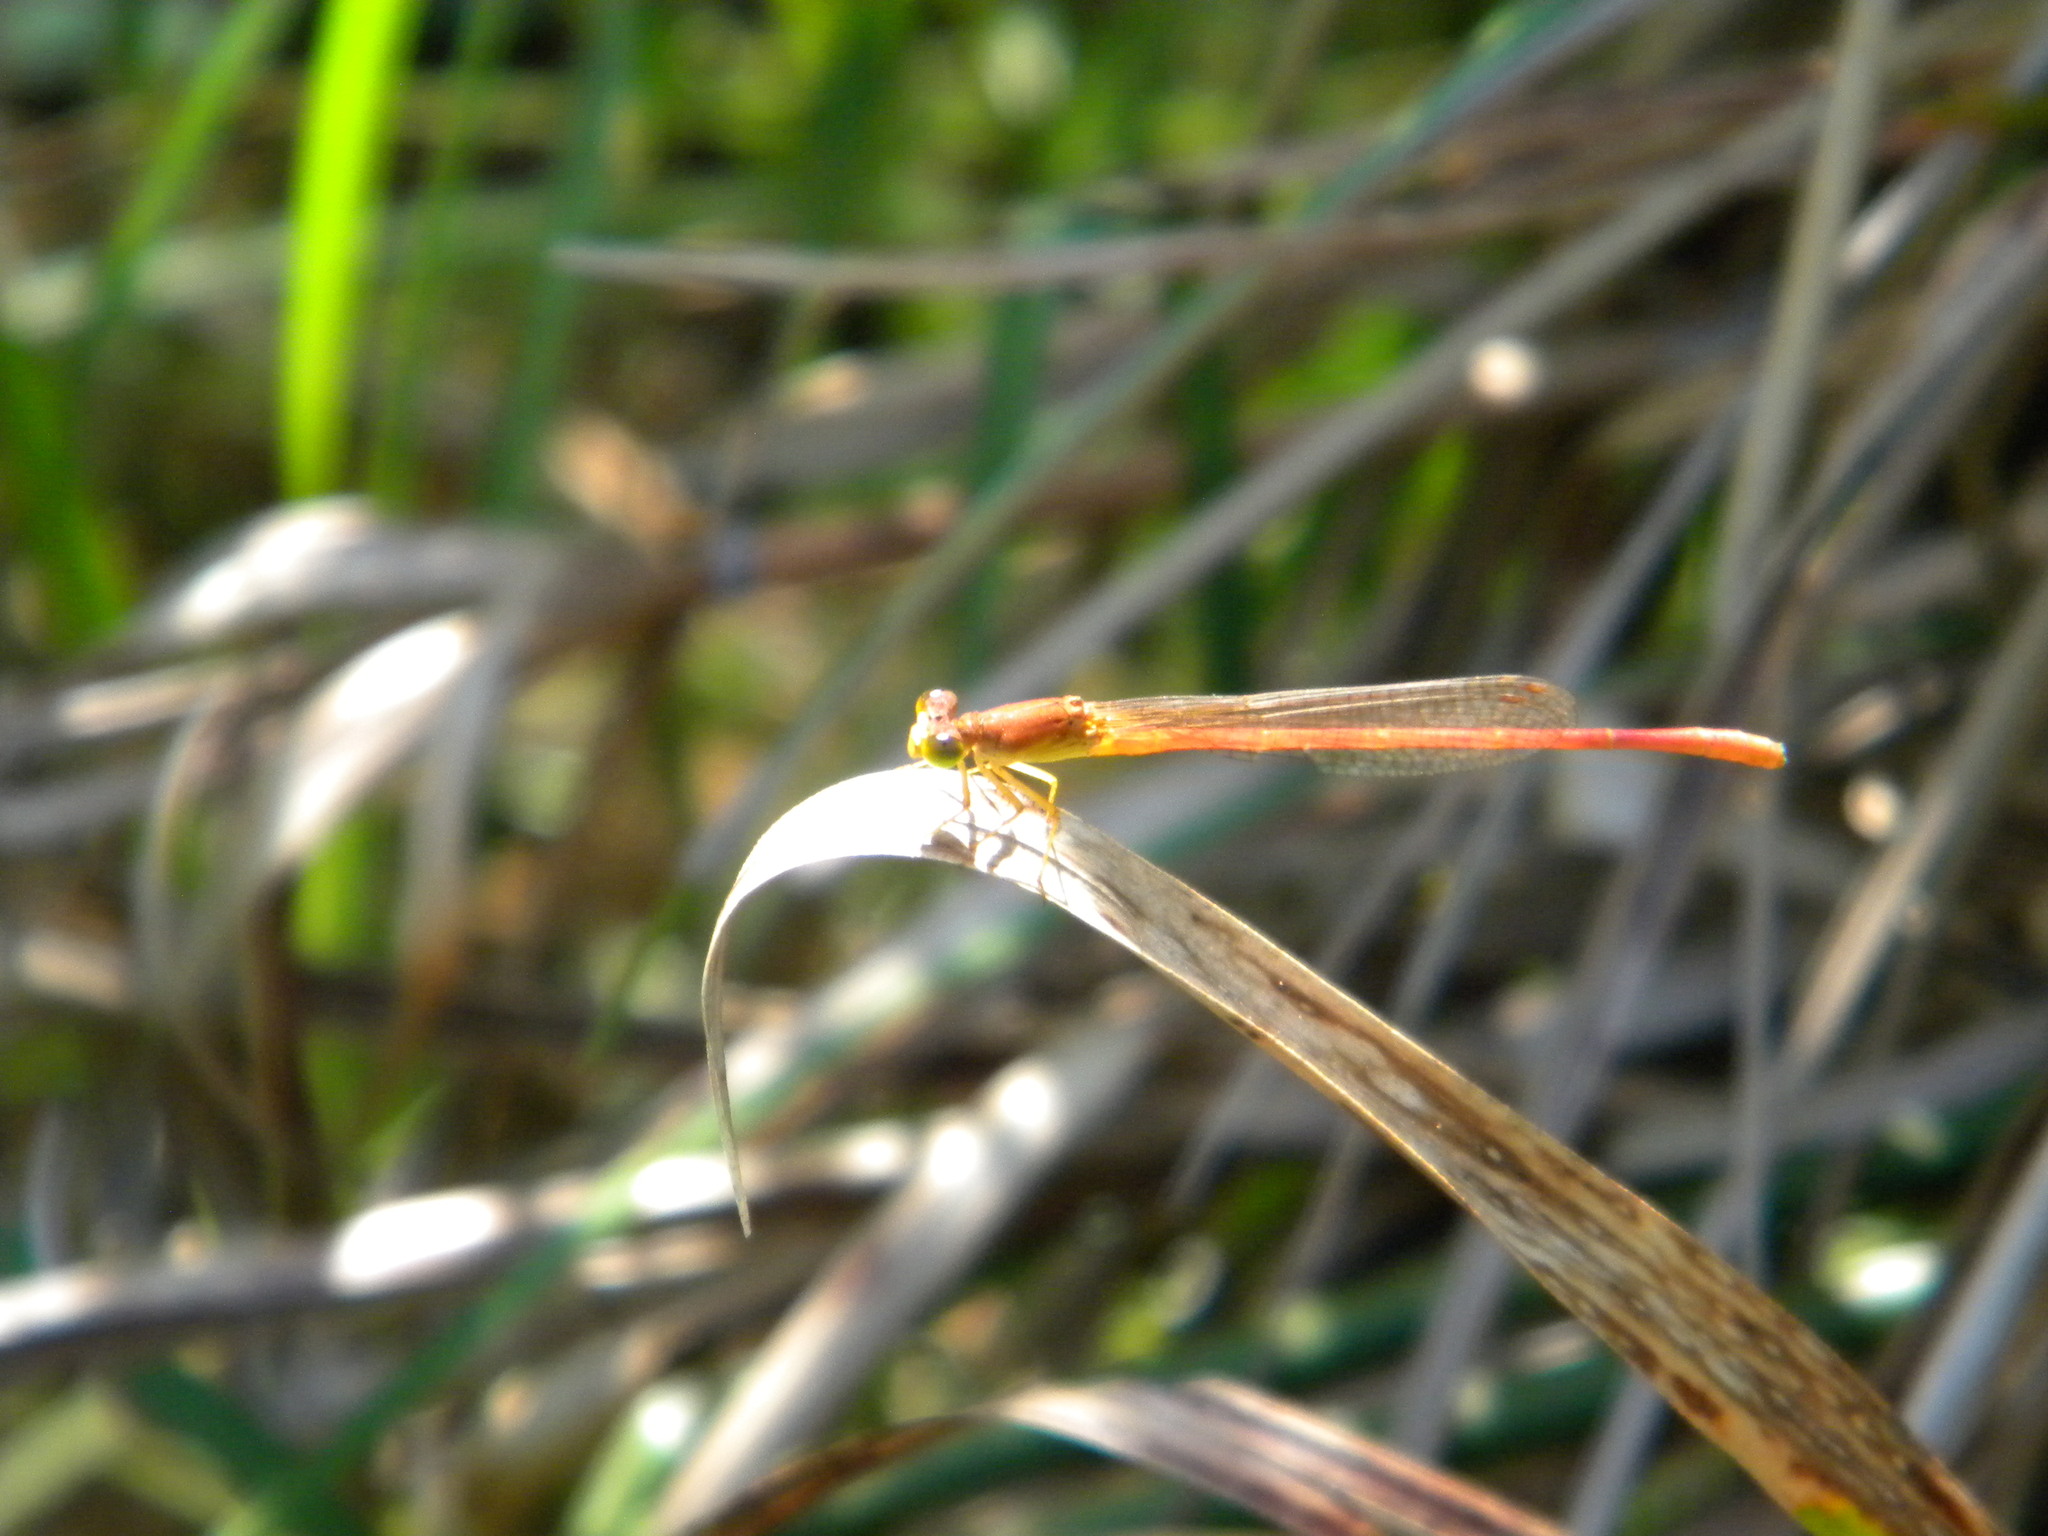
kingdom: Animalia
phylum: Arthropoda
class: Insecta
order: Odonata
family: Coenagrionidae
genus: Ceriagrion
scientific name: Ceriagrion glabrum
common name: Common pond damsel
